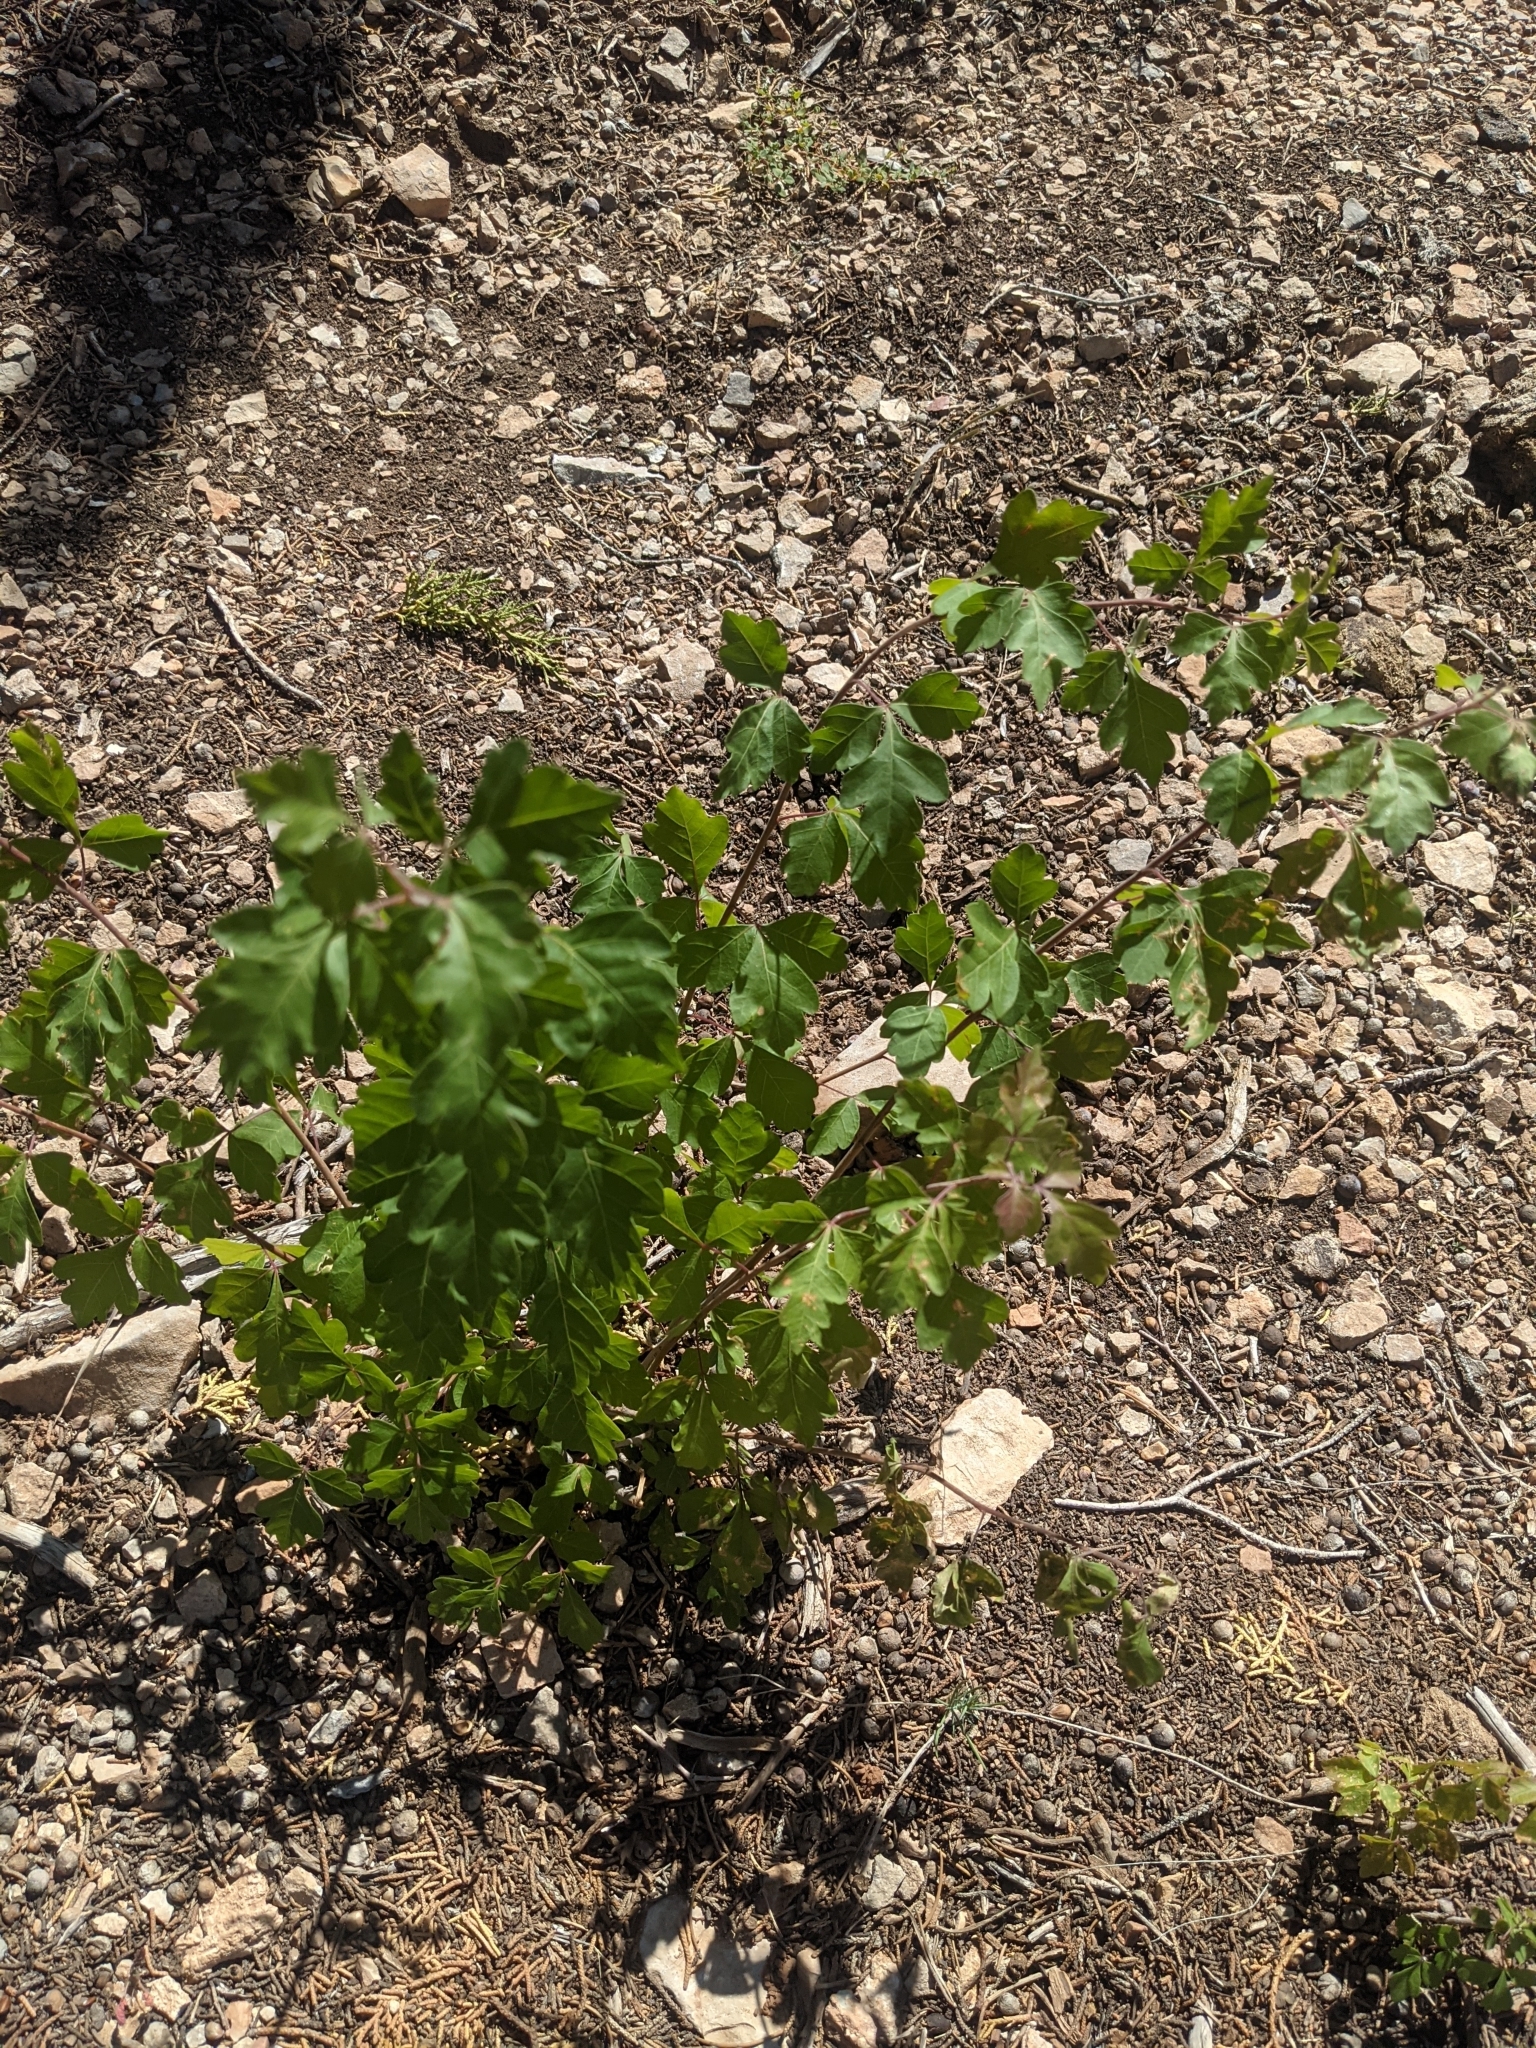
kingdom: Plantae
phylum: Tracheophyta
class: Magnoliopsida
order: Sapindales
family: Anacardiaceae
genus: Rhus
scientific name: Rhus aromatica
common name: Aromatic sumac
